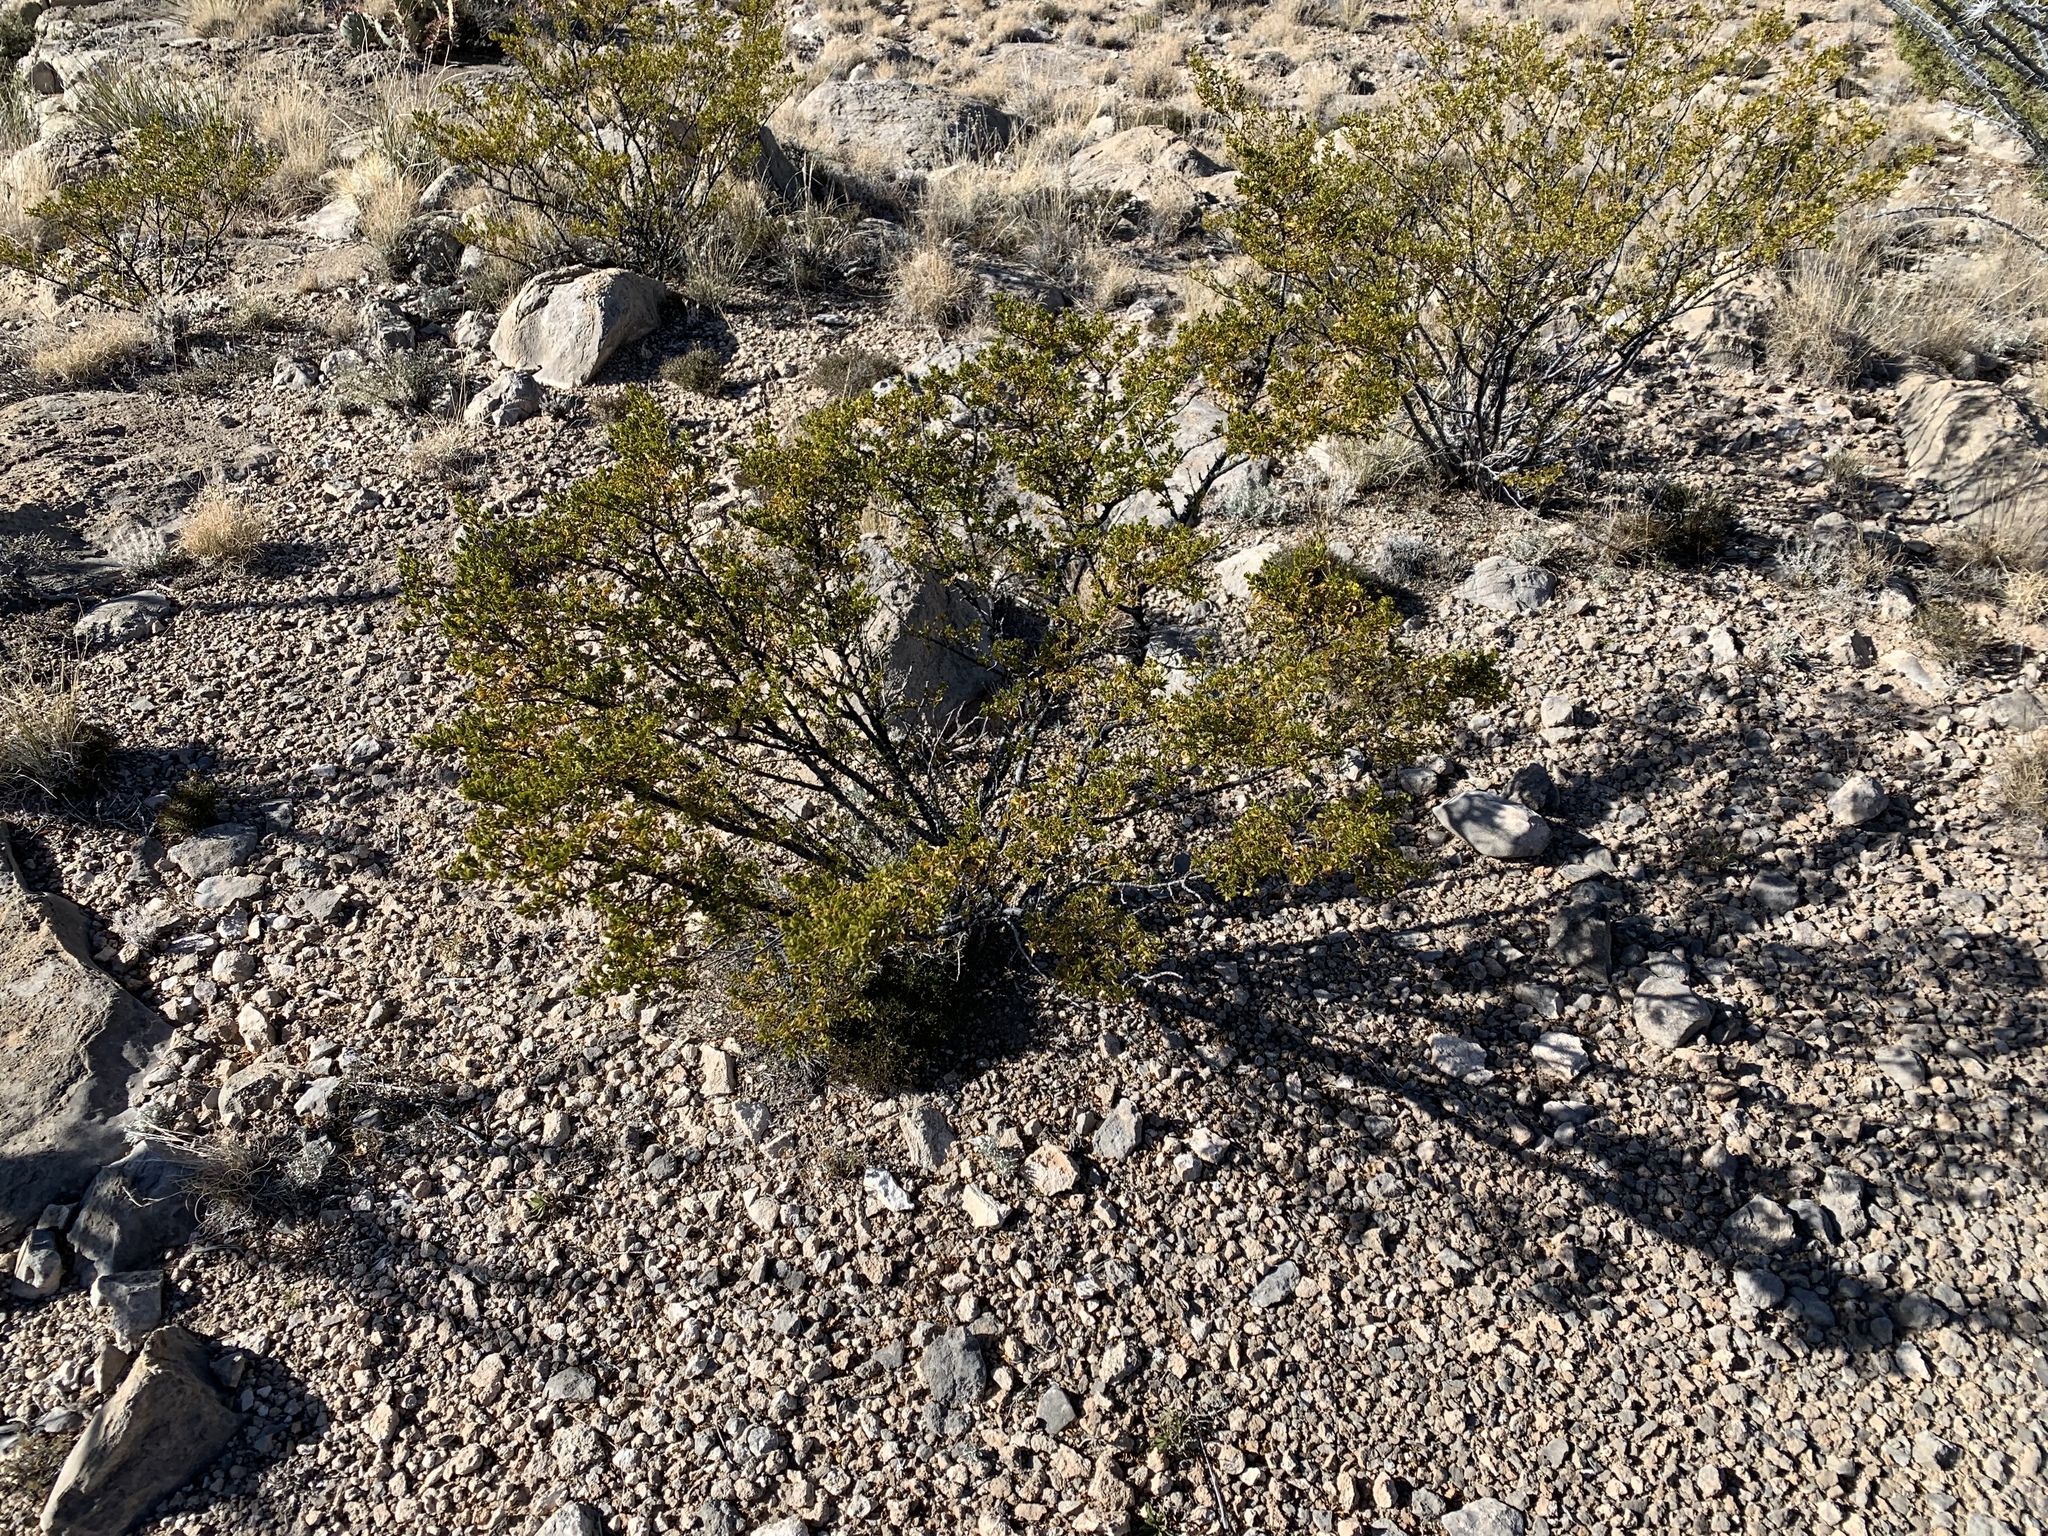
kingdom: Plantae
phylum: Tracheophyta
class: Magnoliopsida
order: Zygophyllales
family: Zygophyllaceae
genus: Larrea
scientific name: Larrea tridentata
